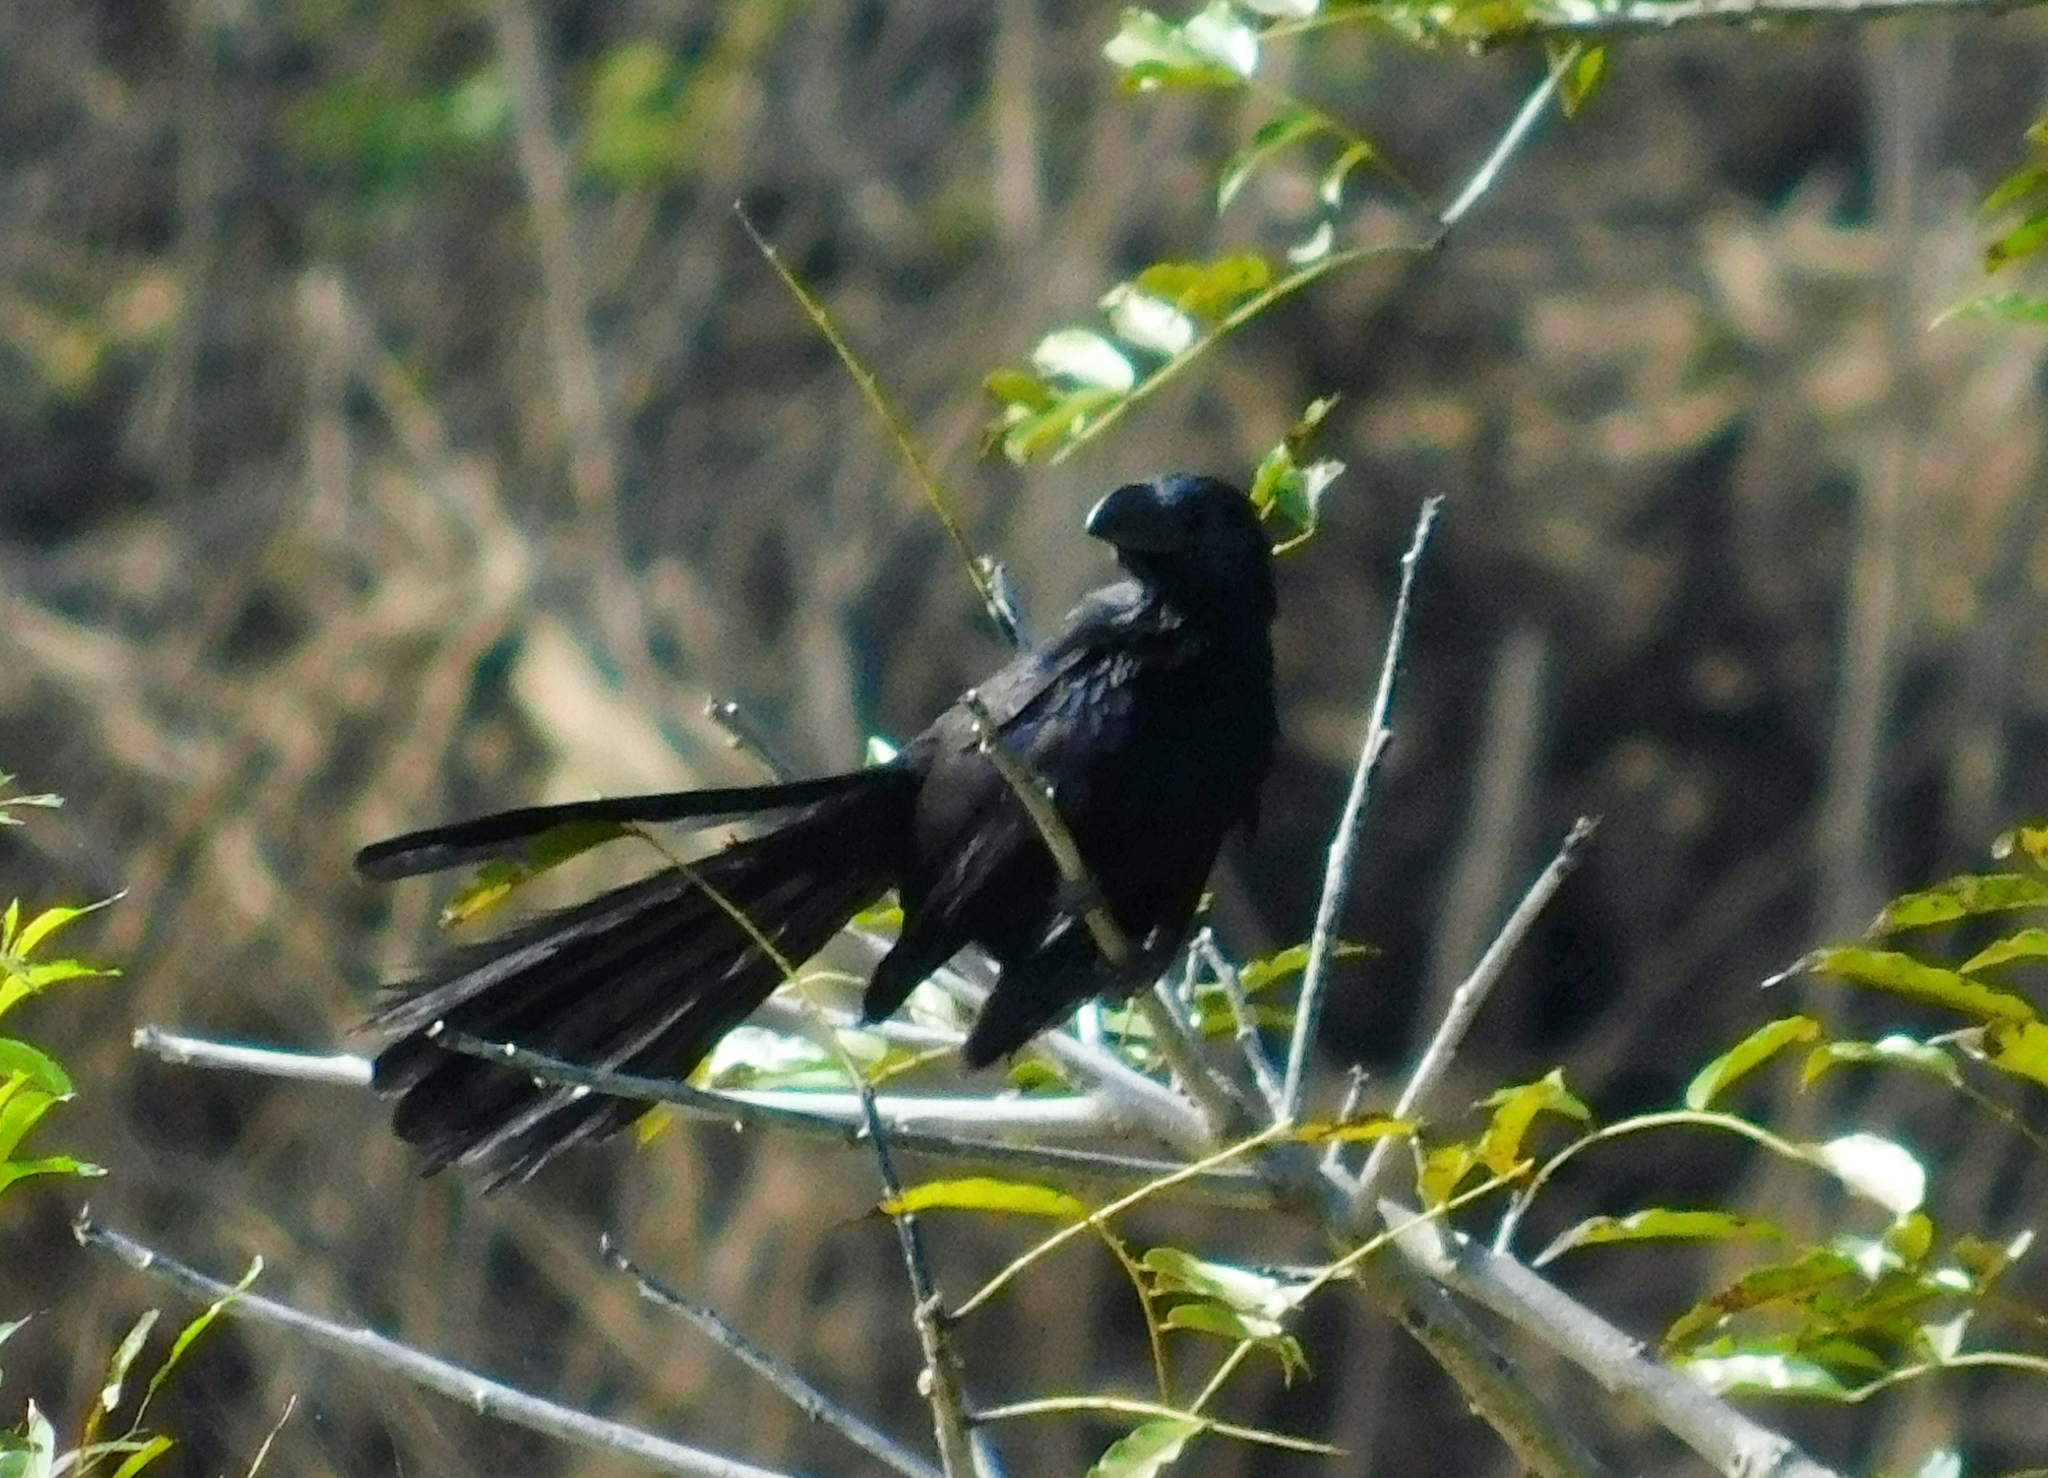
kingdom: Animalia
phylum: Chordata
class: Aves
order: Cuculiformes
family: Cuculidae
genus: Crotophaga
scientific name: Crotophaga sulcirostris
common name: Groove-billed ani
